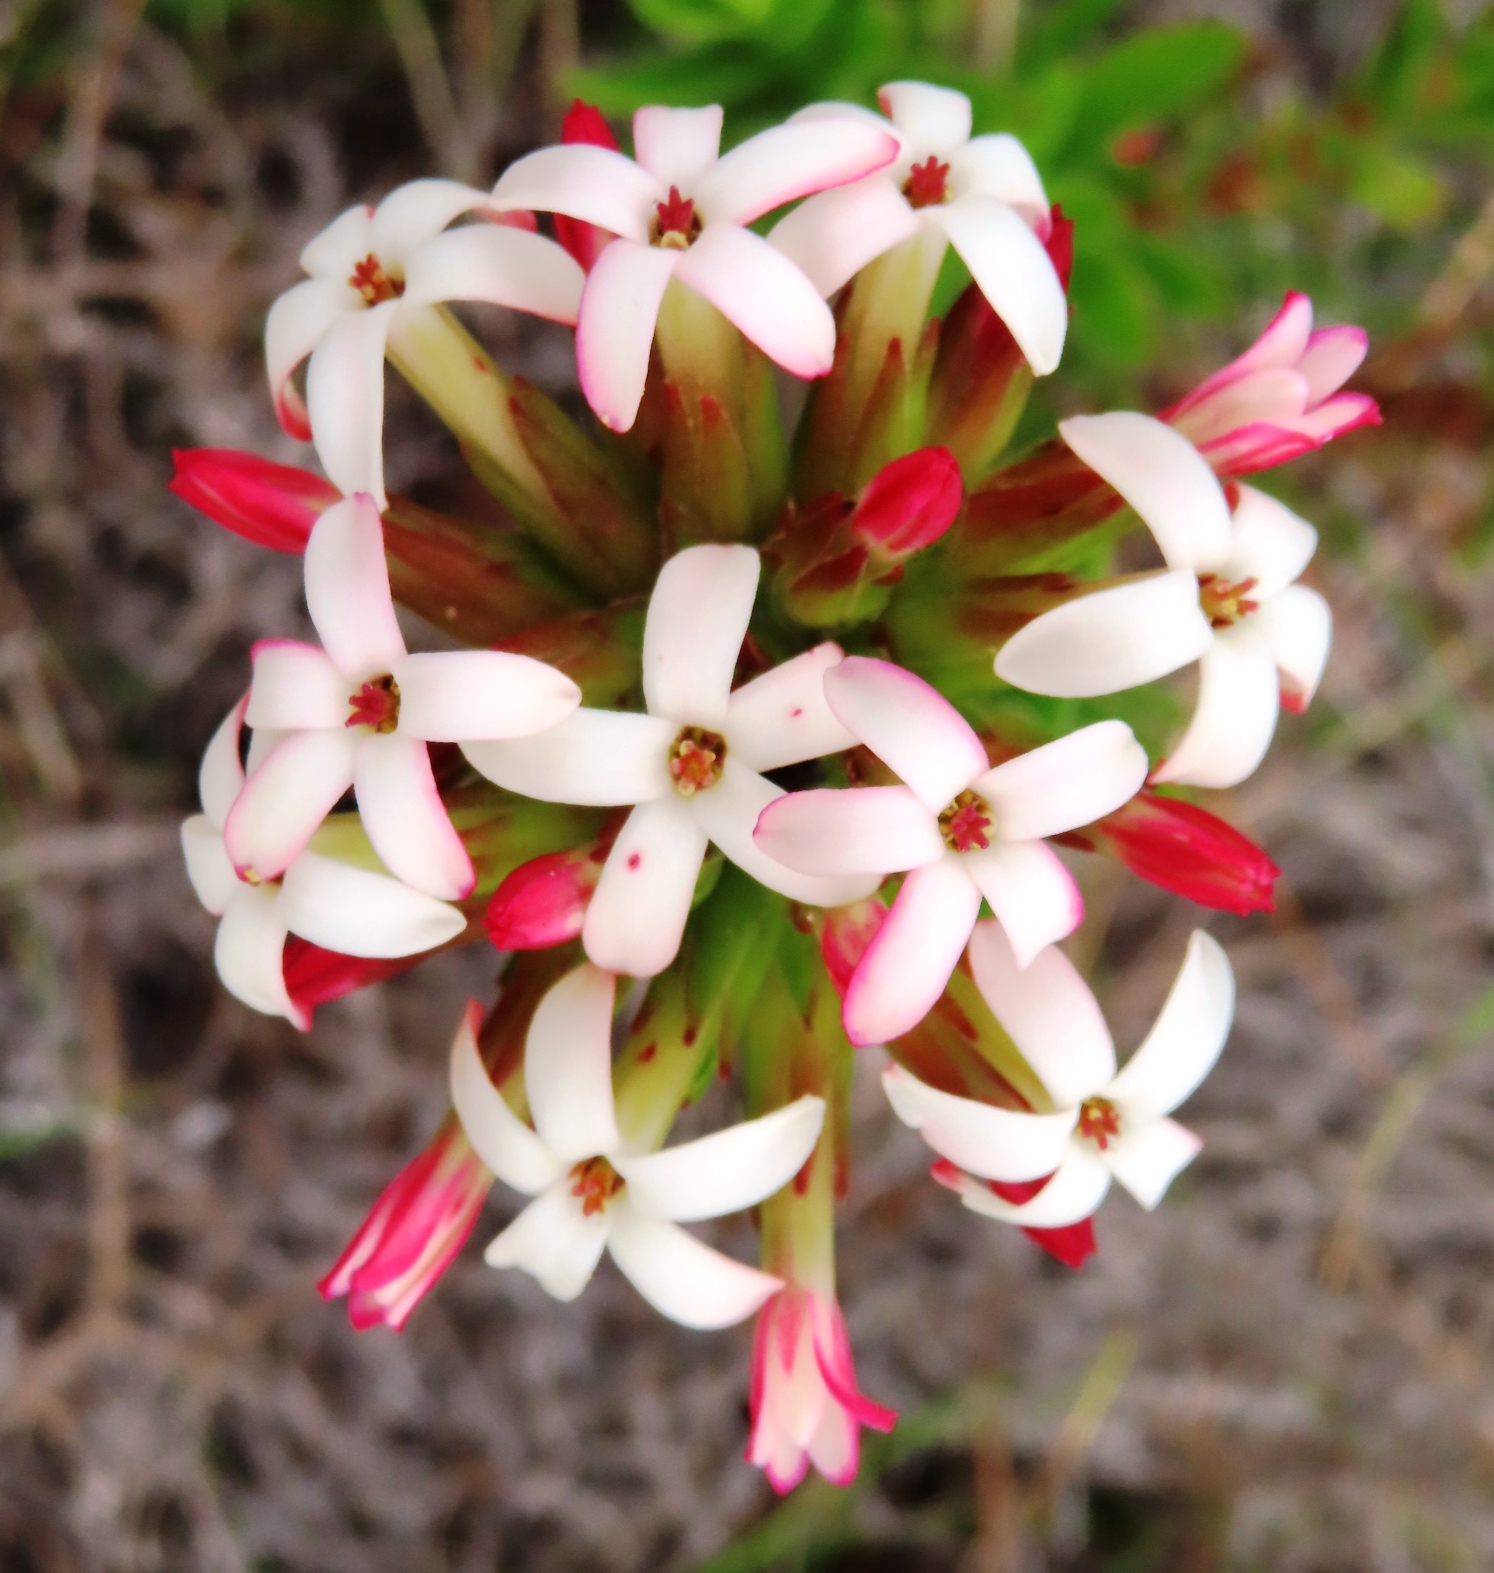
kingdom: Plantae
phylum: Tracheophyta
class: Magnoliopsida
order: Saxifragales
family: Crassulaceae
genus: Crassula
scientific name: Crassula fascicularis
